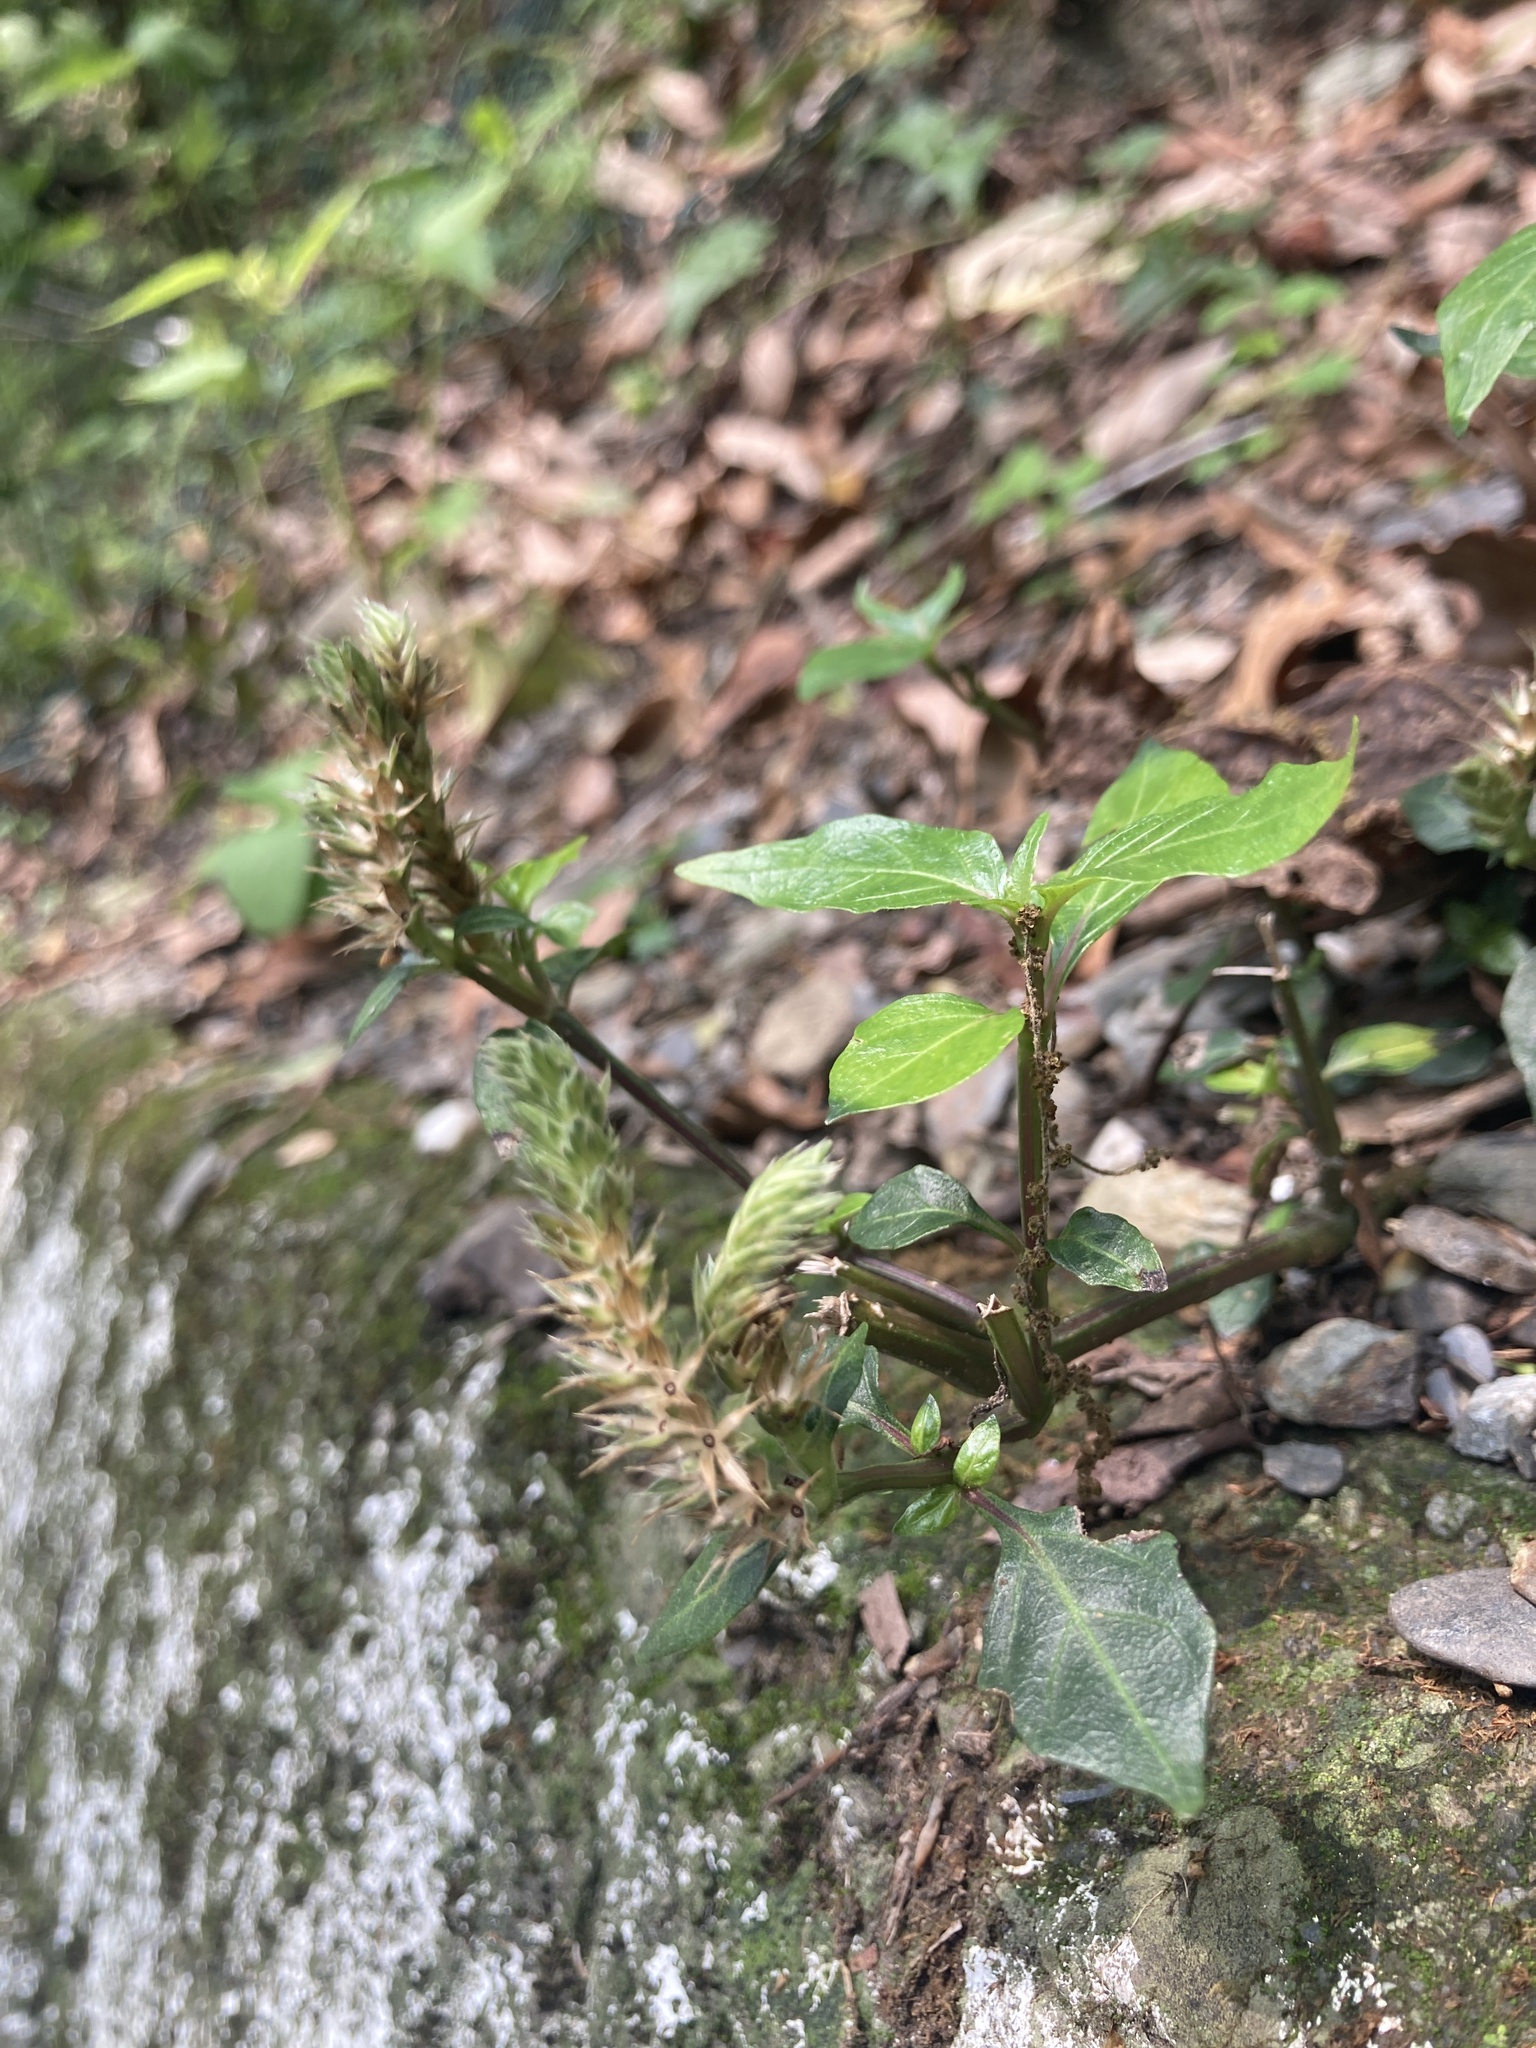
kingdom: Plantae
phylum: Tracheophyta
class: Magnoliopsida
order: Lamiales
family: Acanthaceae
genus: Lepidagathis
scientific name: Lepidagathis formosensis
